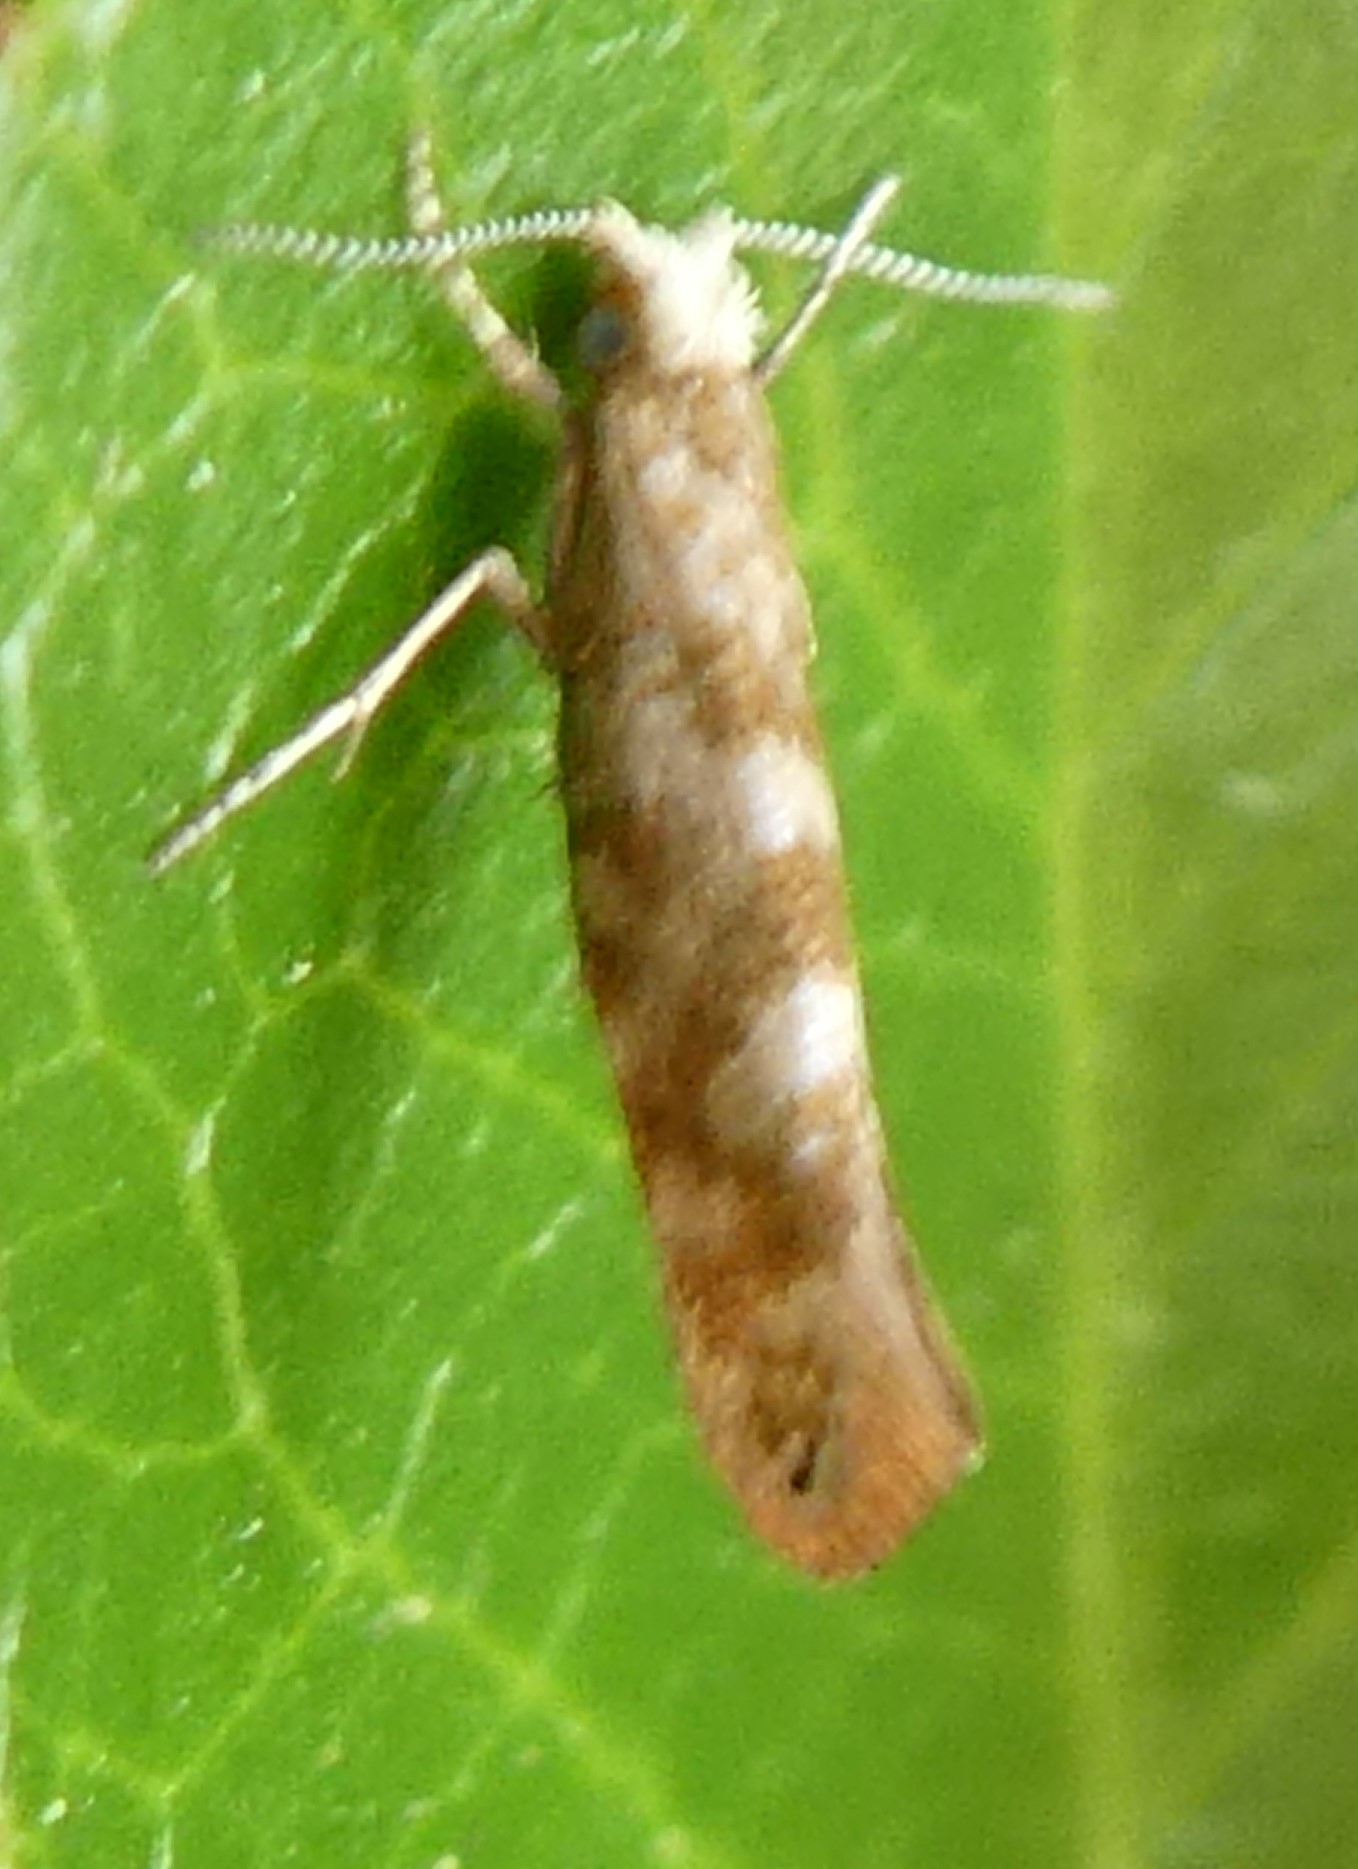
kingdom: Animalia
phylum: Arthropoda
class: Insecta
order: Lepidoptera
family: Argyresthiidae
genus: Argyresthia
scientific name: Argyresthia cupressella
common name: Cypress tip moth
